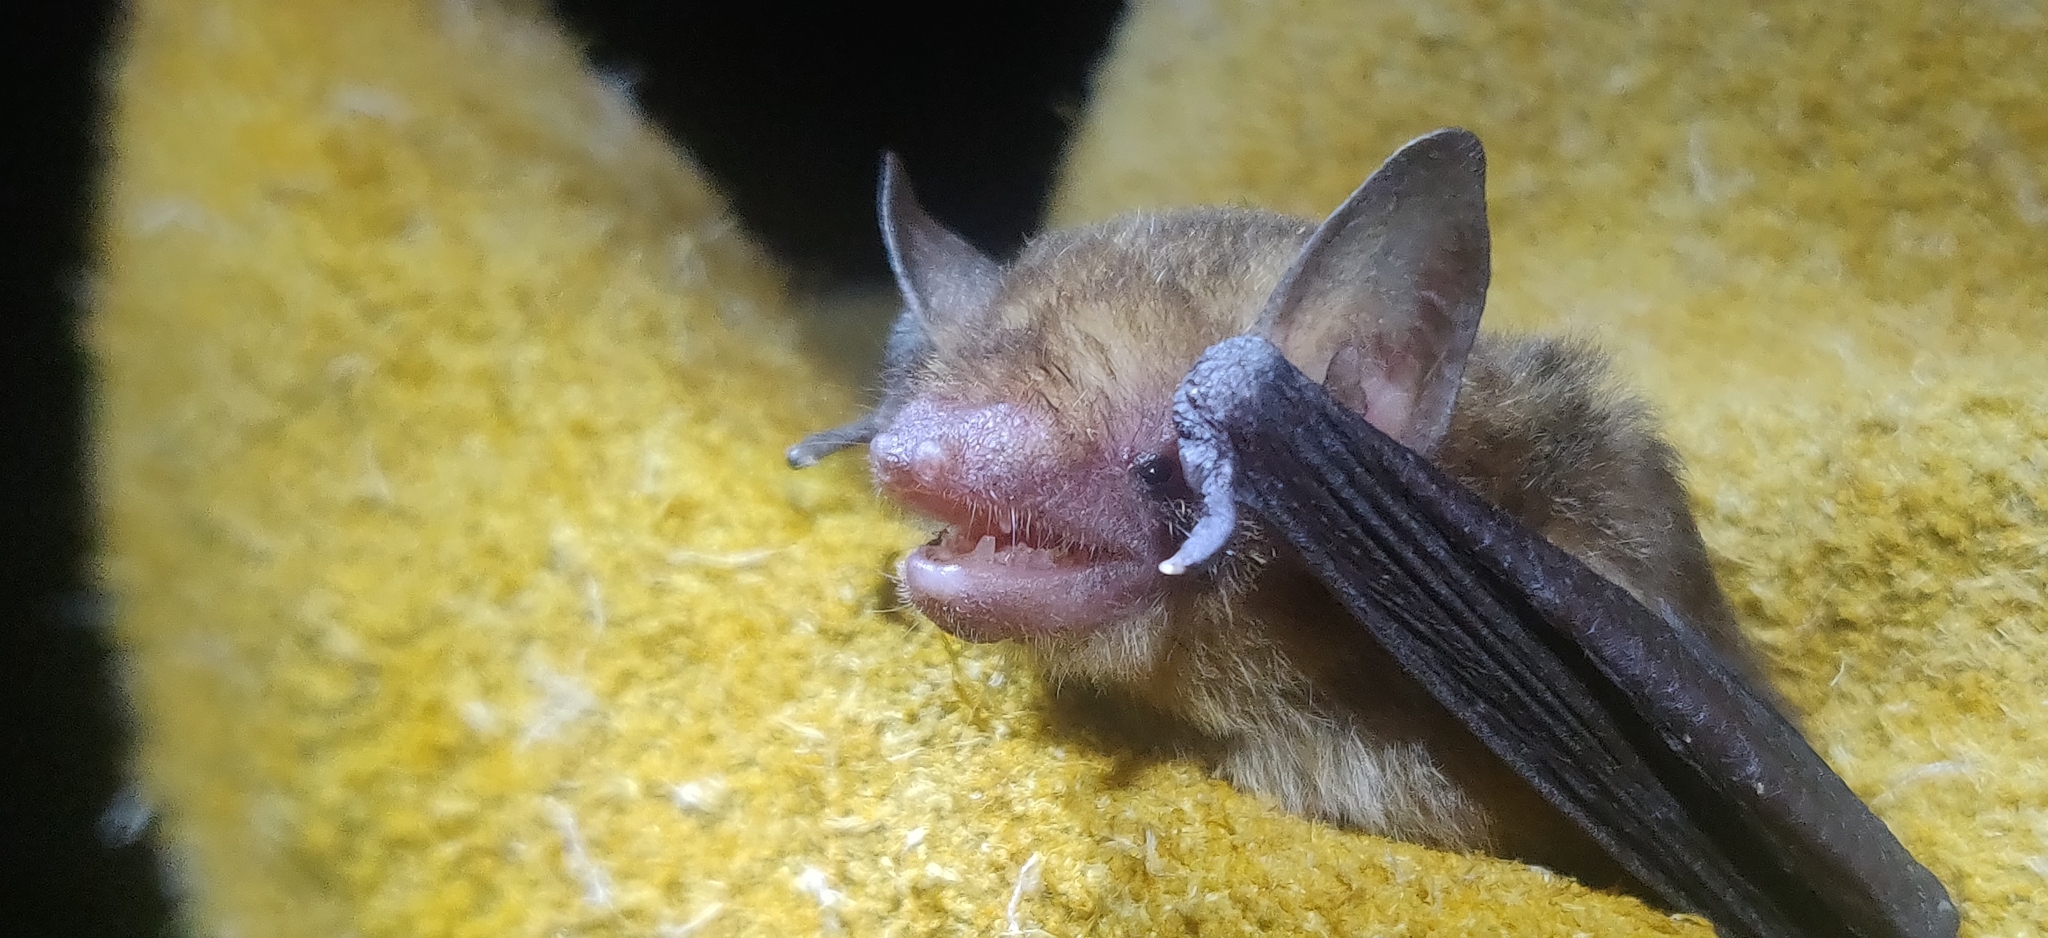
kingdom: Animalia
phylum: Chordata
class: Mammalia
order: Chiroptera
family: Vespertilionidae
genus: Rhogeessa
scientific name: Rhogeessa io
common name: Thomas's yellow bat
